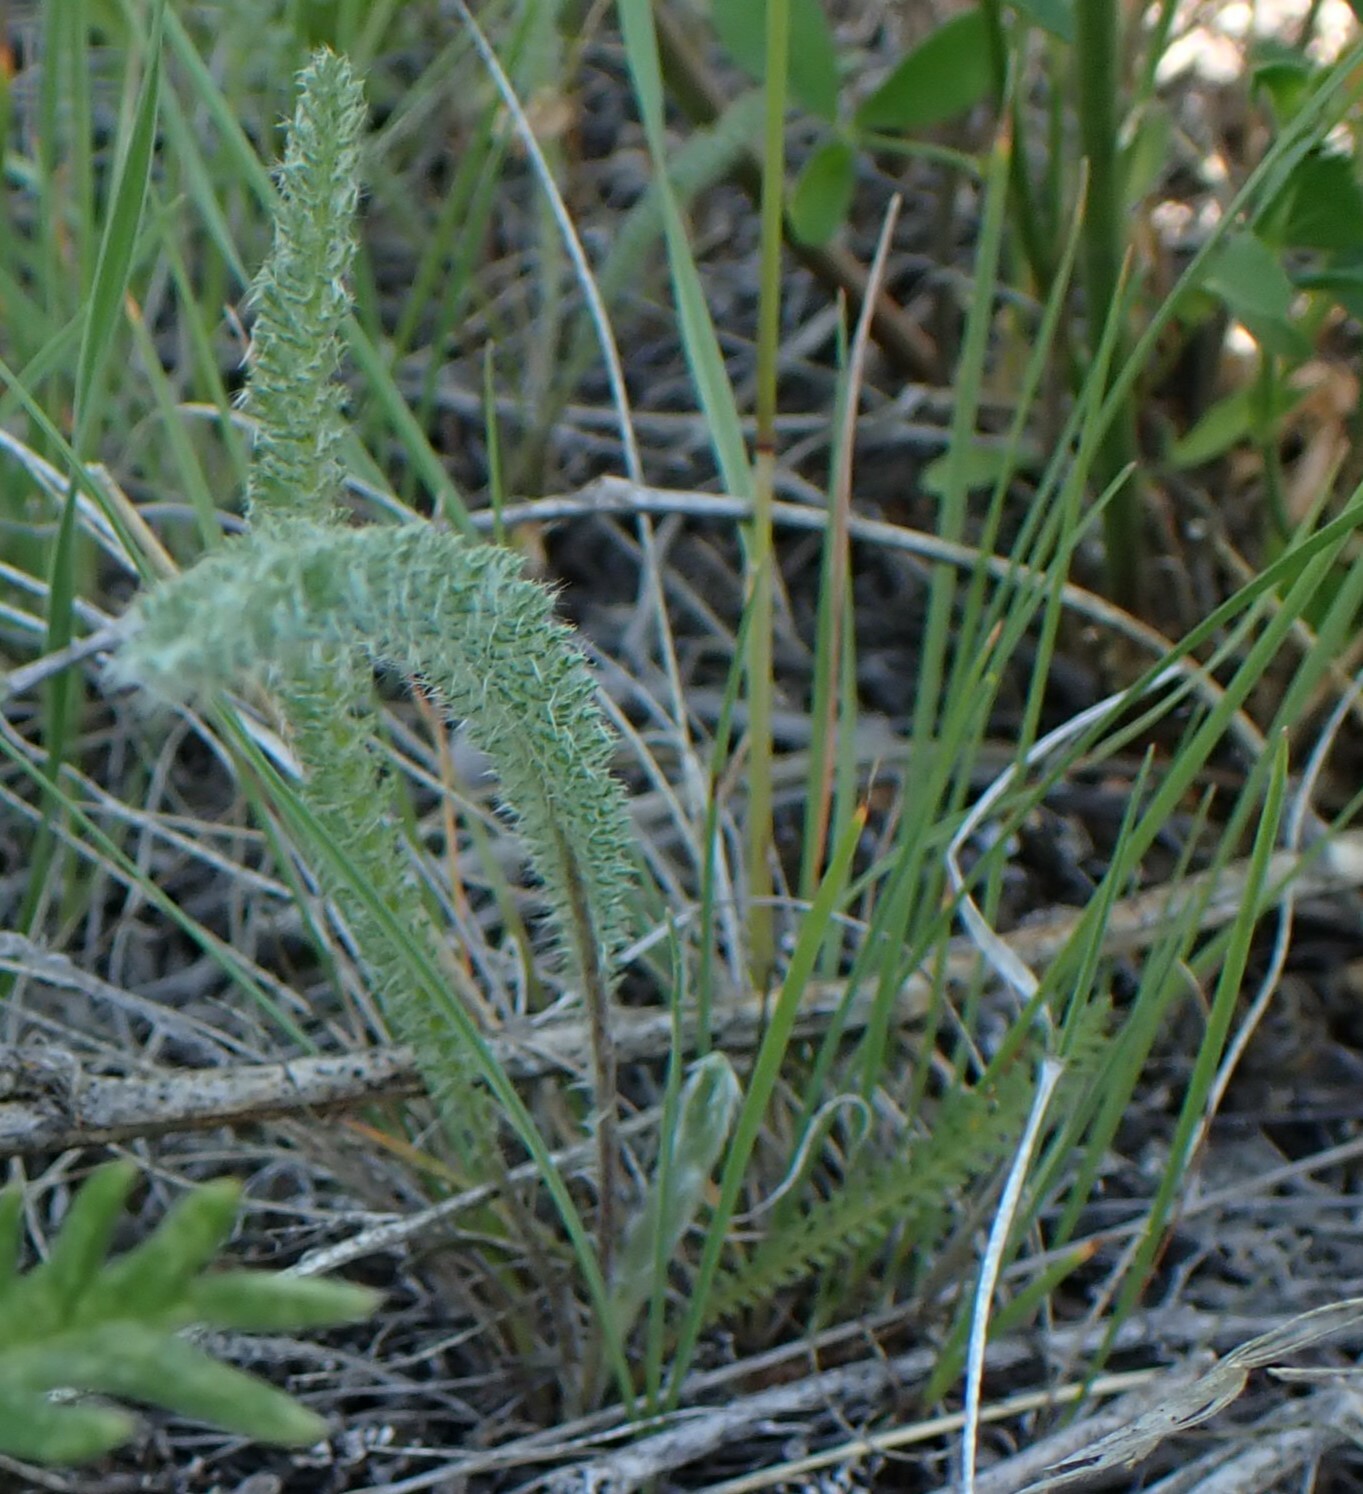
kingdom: Plantae
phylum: Tracheophyta
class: Magnoliopsida
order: Asterales
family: Asteraceae
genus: Achillea
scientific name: Achillea millefolium
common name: Yarrow
